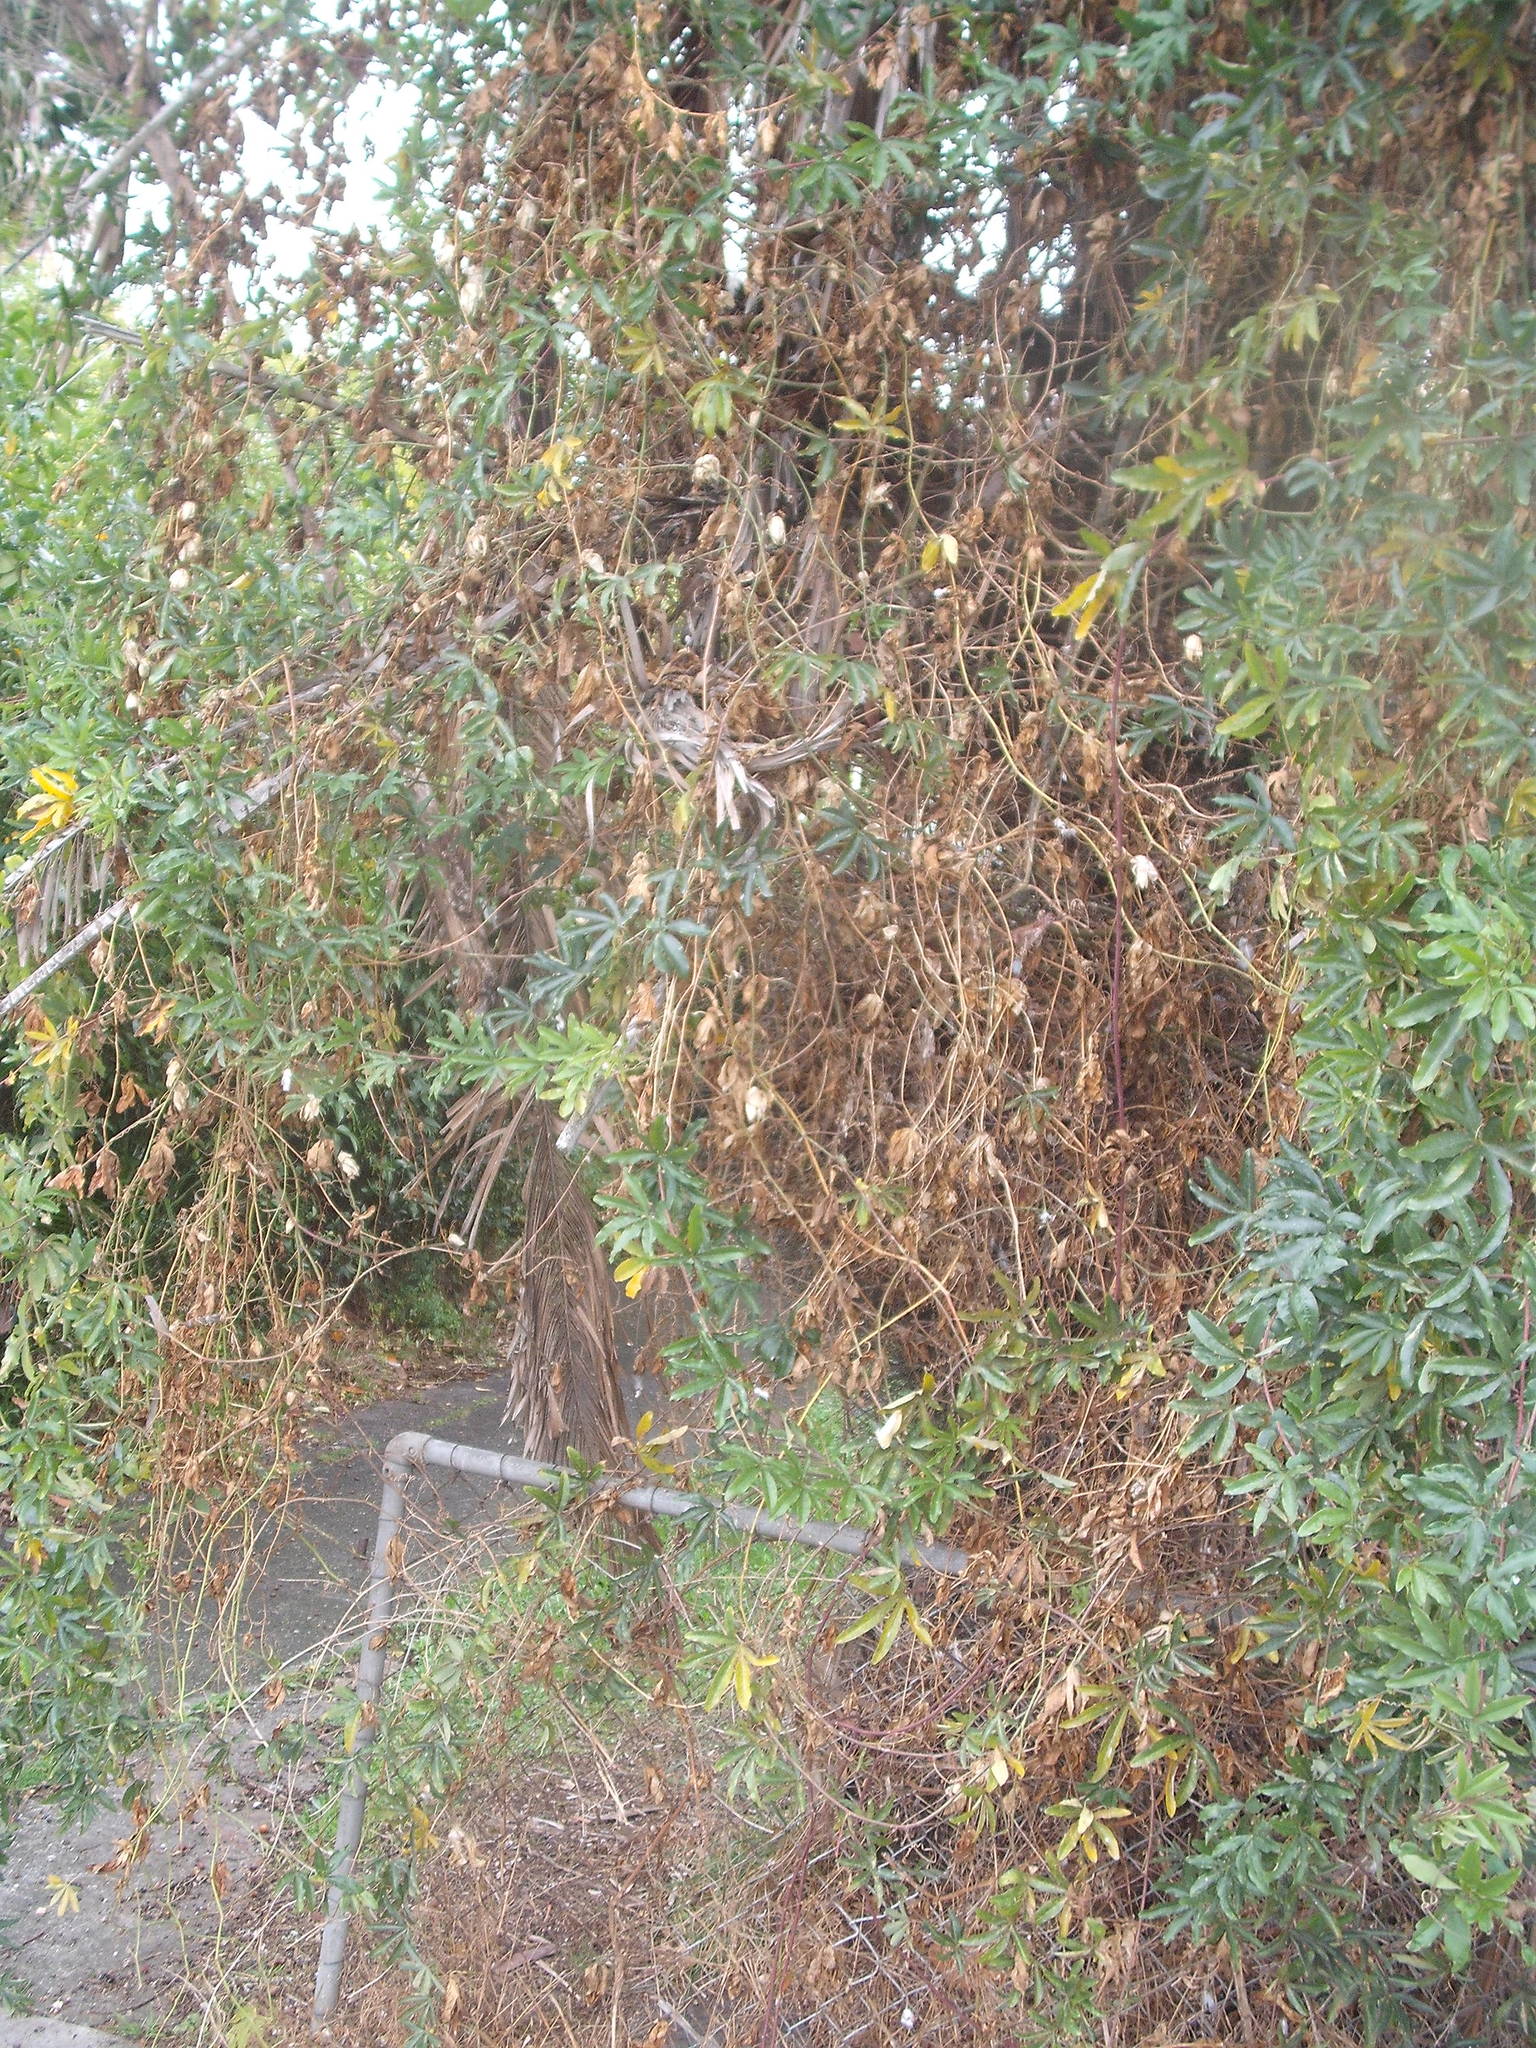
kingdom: Plantae
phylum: Tracheophyta
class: Magnoliopsida
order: Malpighiales
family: Passifloraceae
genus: Passiflora
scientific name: Passiflora caerulea
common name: Blue passionflower
